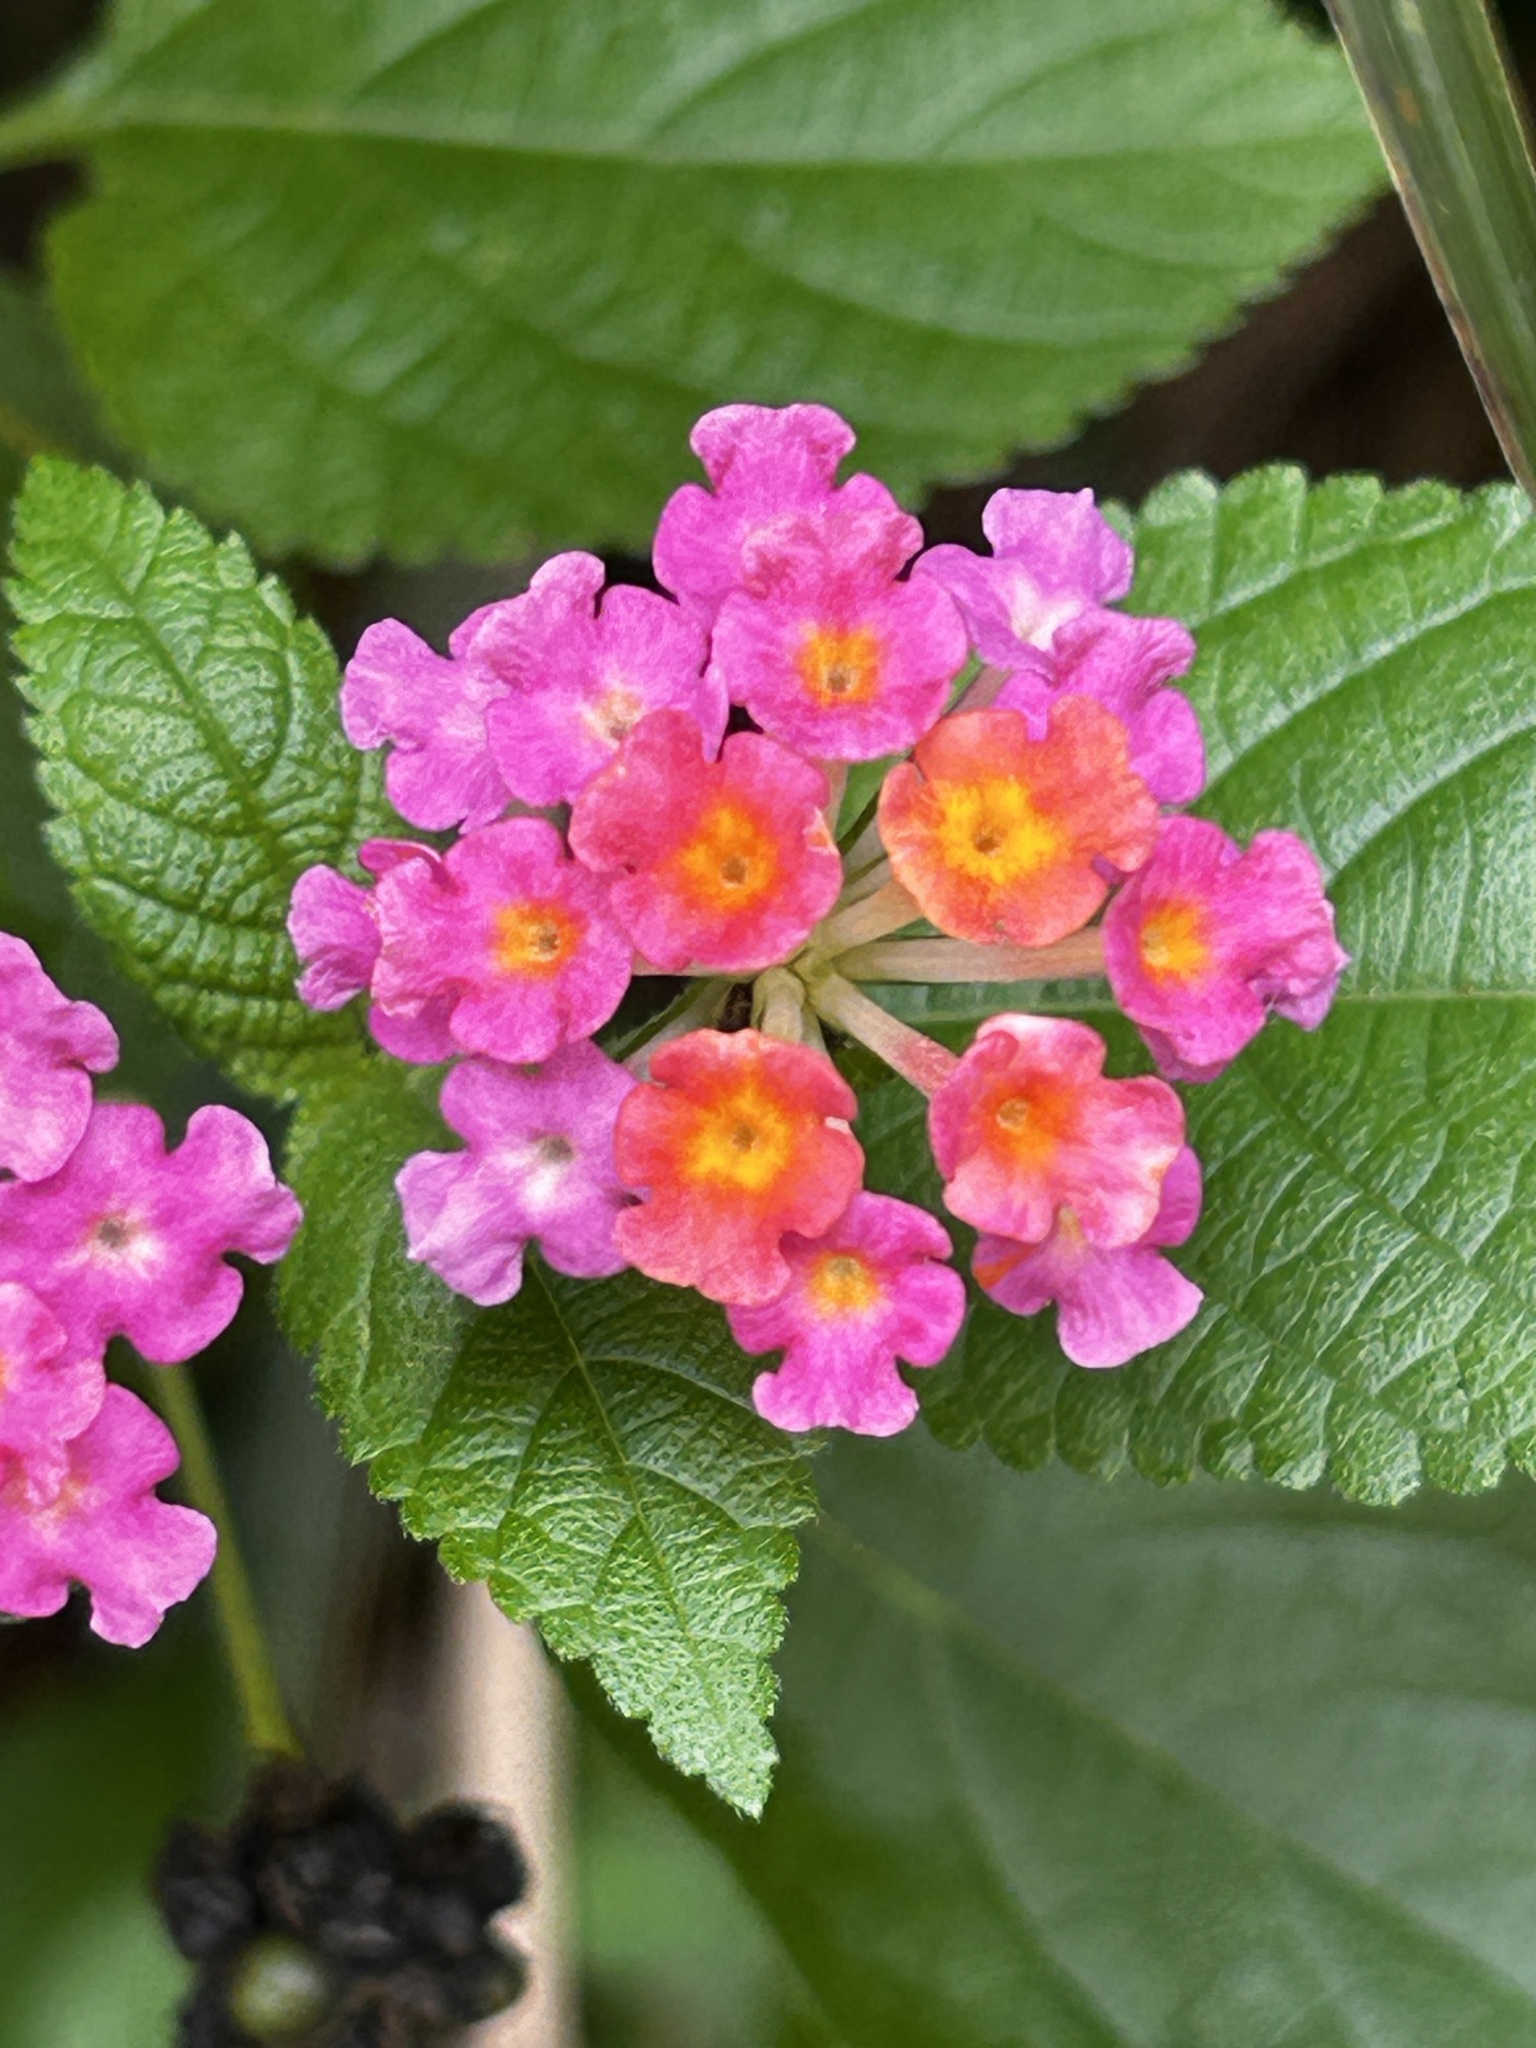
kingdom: Plantae
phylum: Tracheophyta
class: Magnoliopsida
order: Lamiales
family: Verbenaceae
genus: Lantana
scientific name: Lantana camara
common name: Lantana
